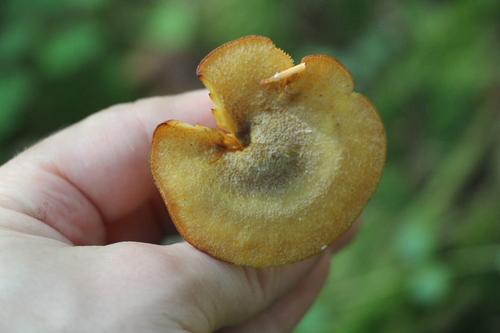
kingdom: Fungi
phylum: Basidiomycota
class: Agaricomycetes
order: Agaricales
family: Tricholomataceae
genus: Tricholomopsis
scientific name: Tricholomopsis decora
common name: Prunes and custard
